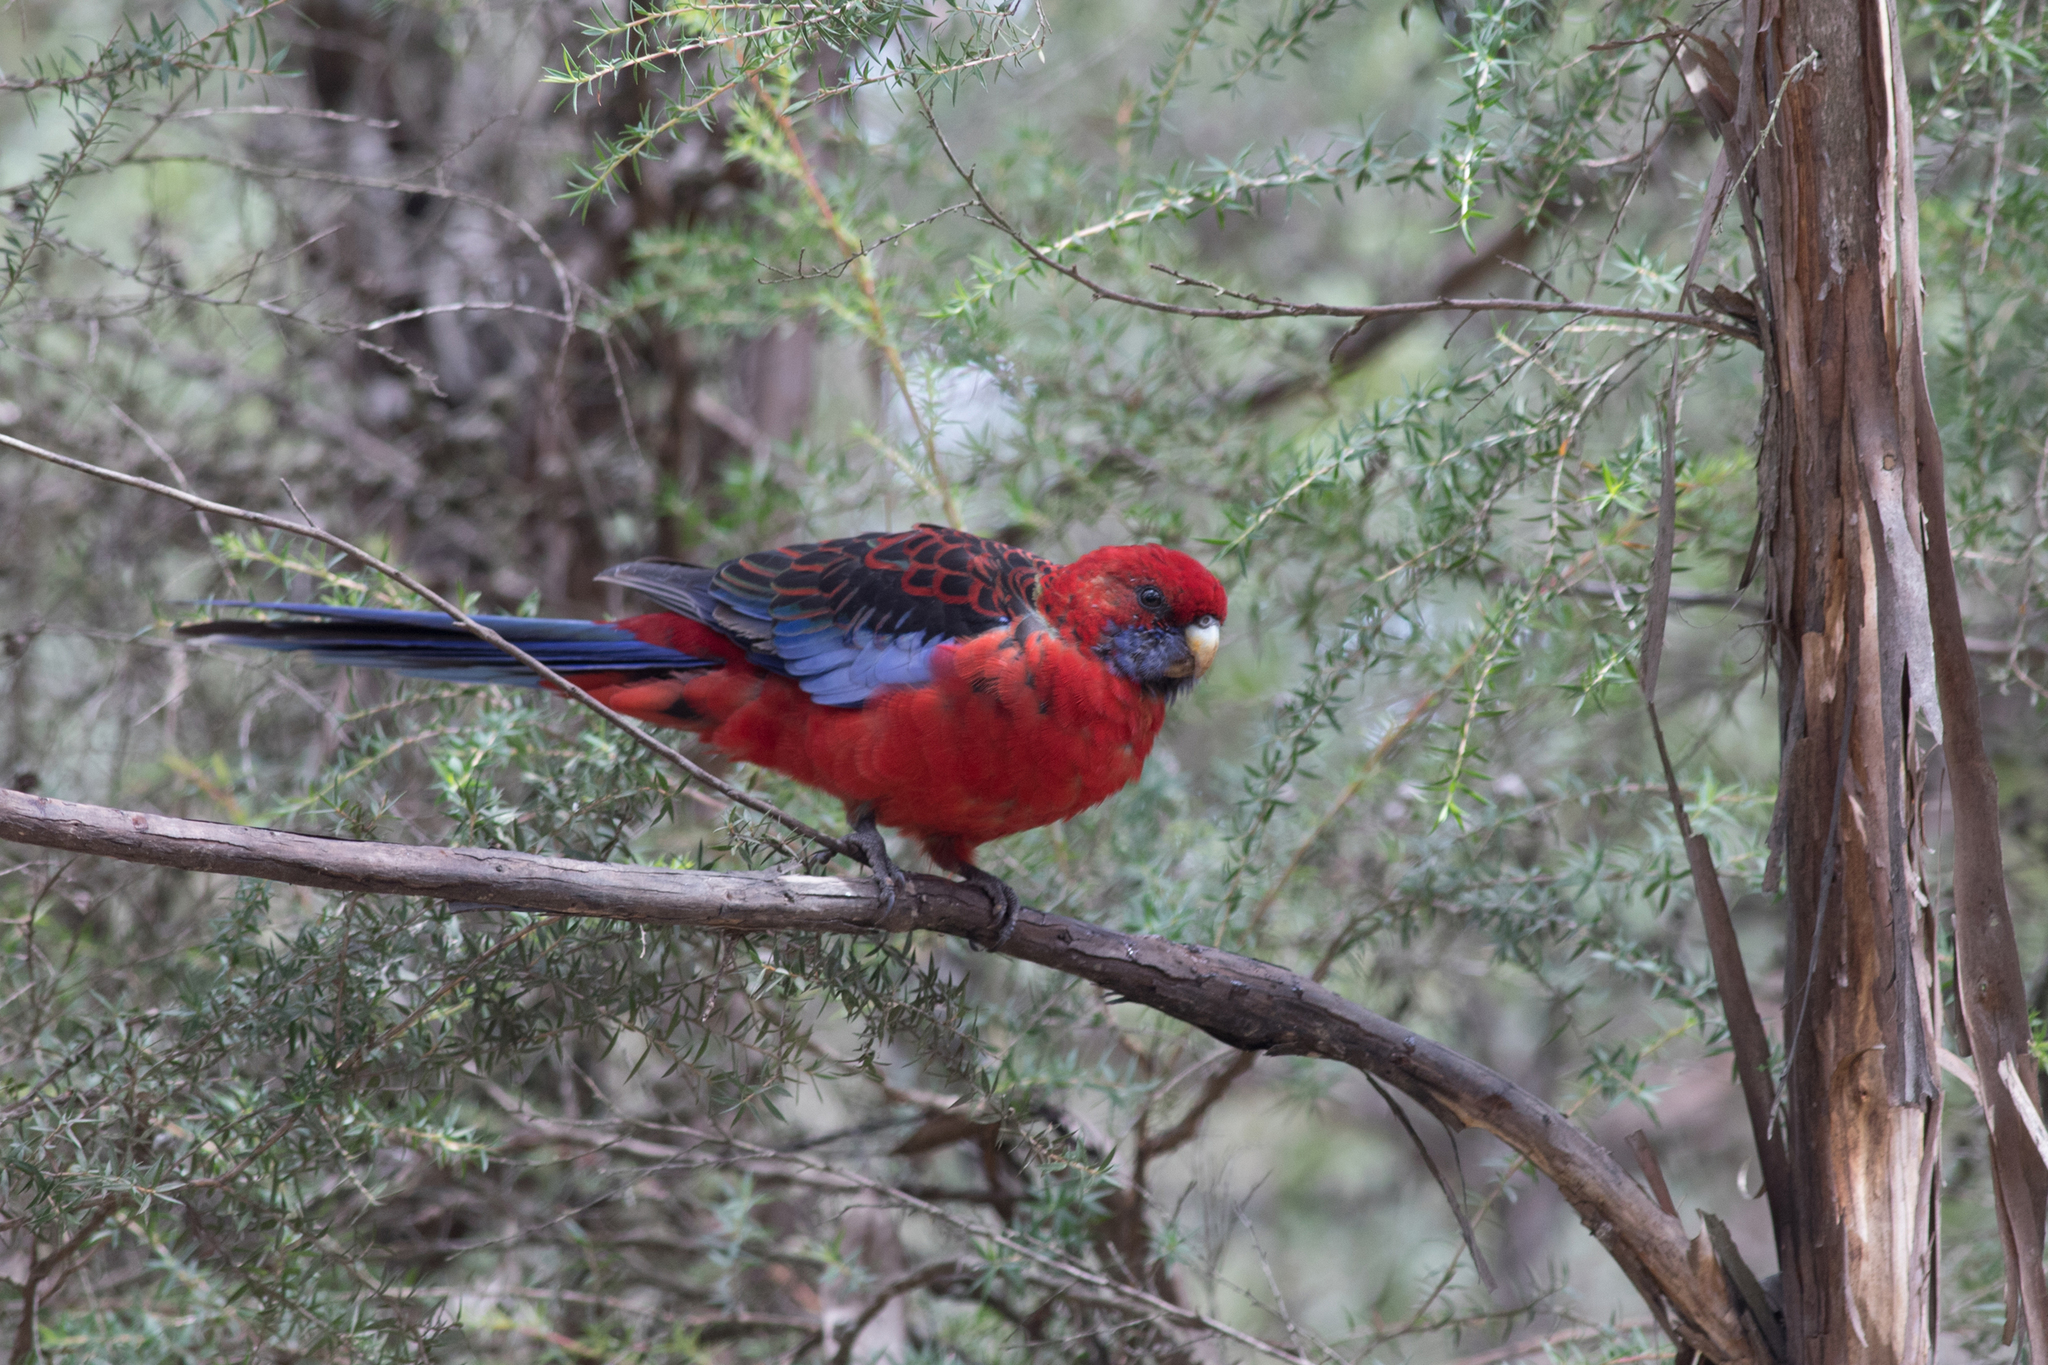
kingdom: Animalia
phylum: Chordata
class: Aves
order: Psittaciformes
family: Psittacidae
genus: Platycercus
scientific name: Platycercus elegans
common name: Crimson rosella
